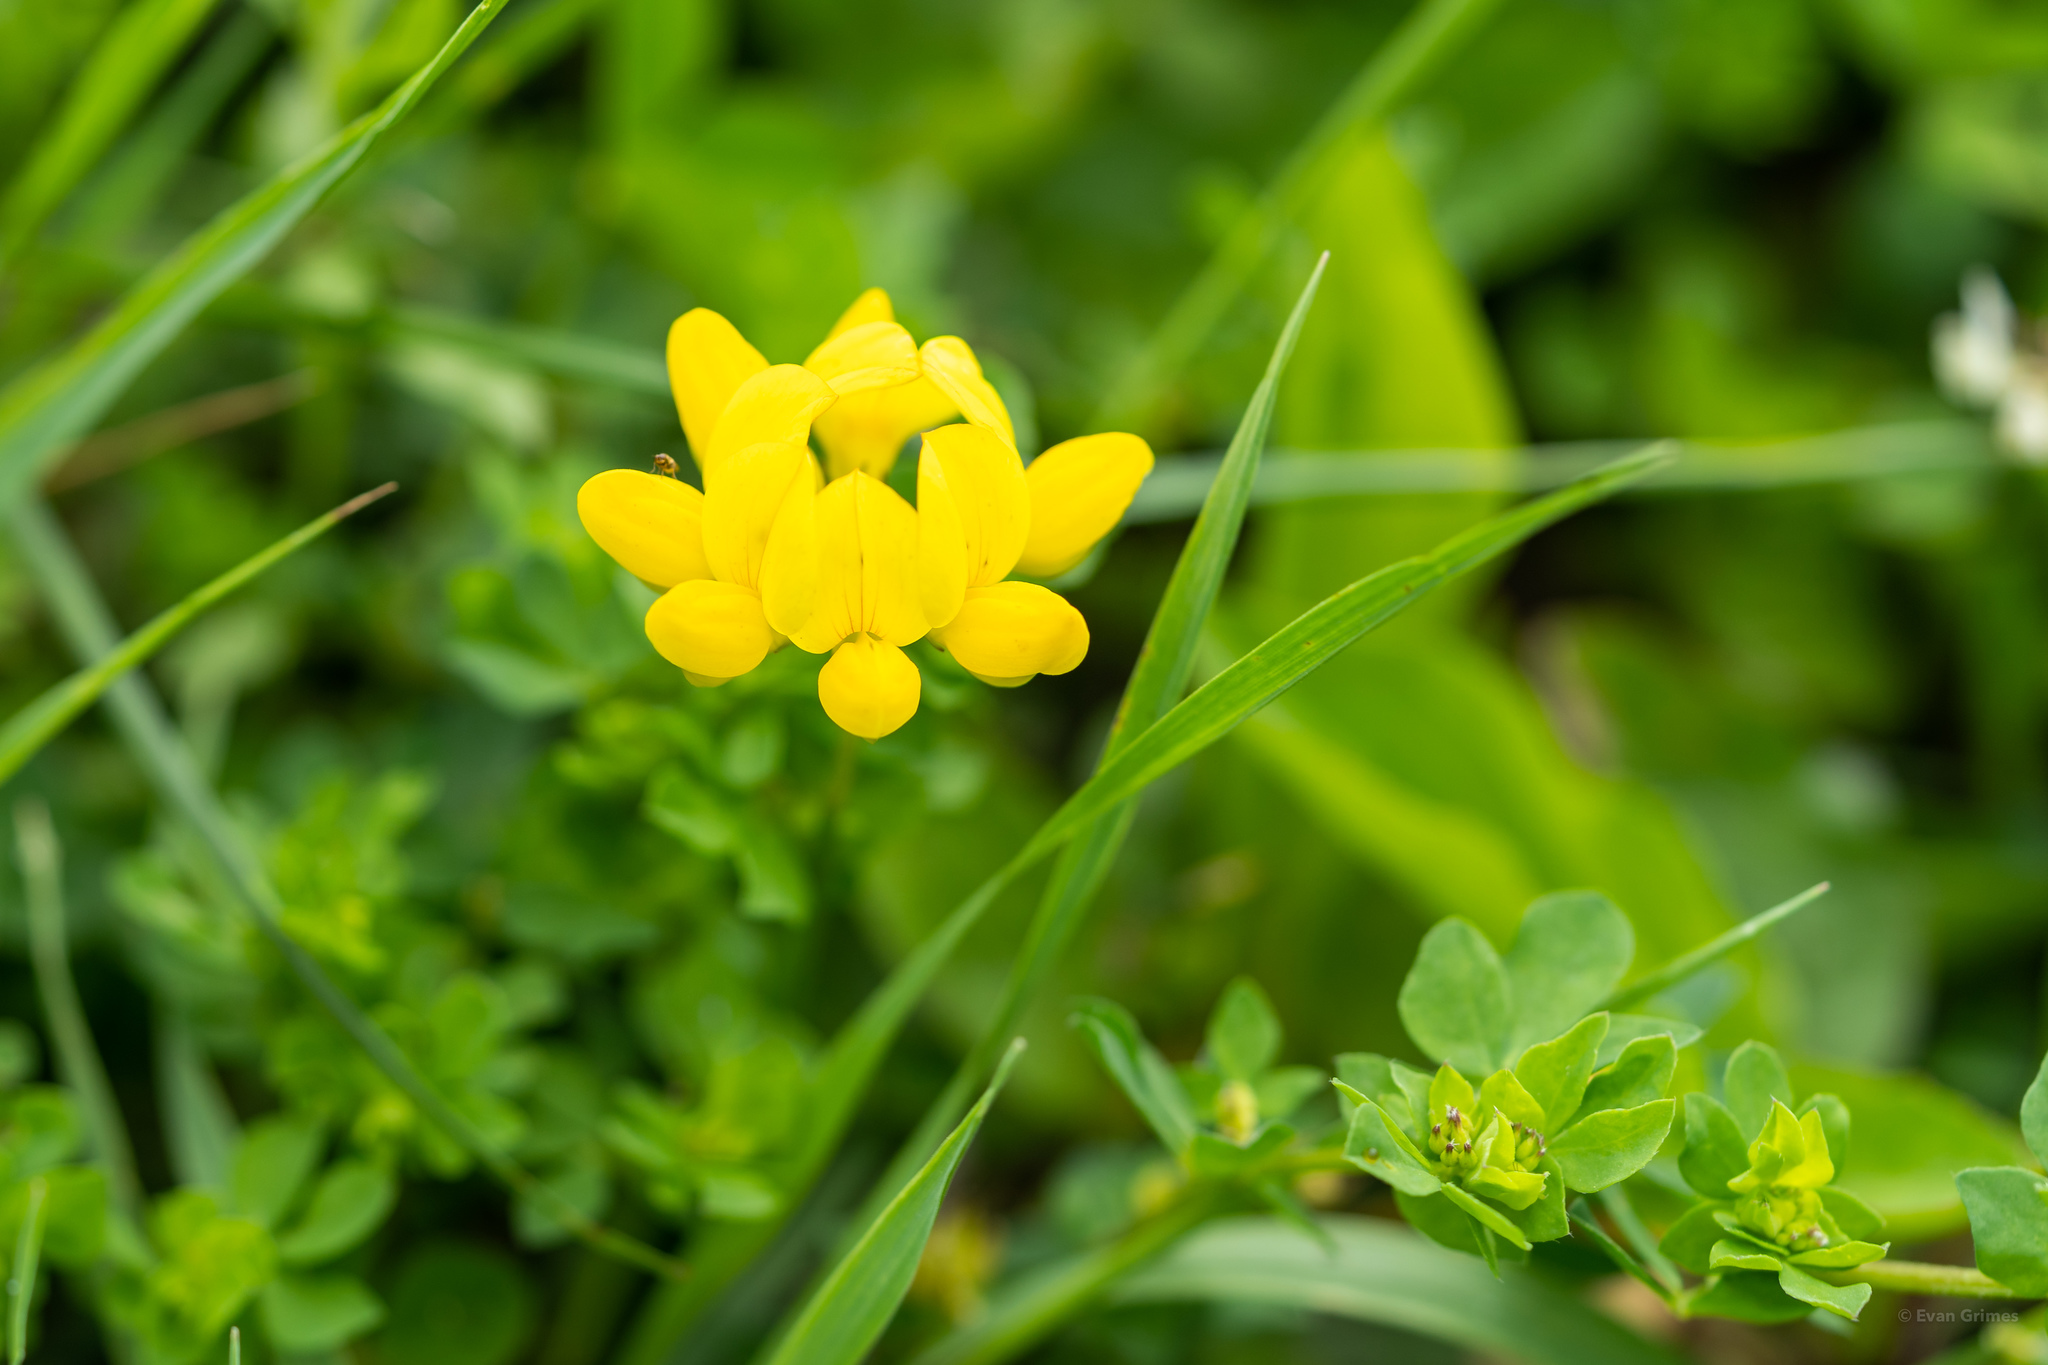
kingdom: Plantae
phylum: Tracheophyta
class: Magnoliopsida
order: Fabales
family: Fabaceae
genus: Lotus
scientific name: Lotus corniculatus
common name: Common bird's-foot-trefoil
